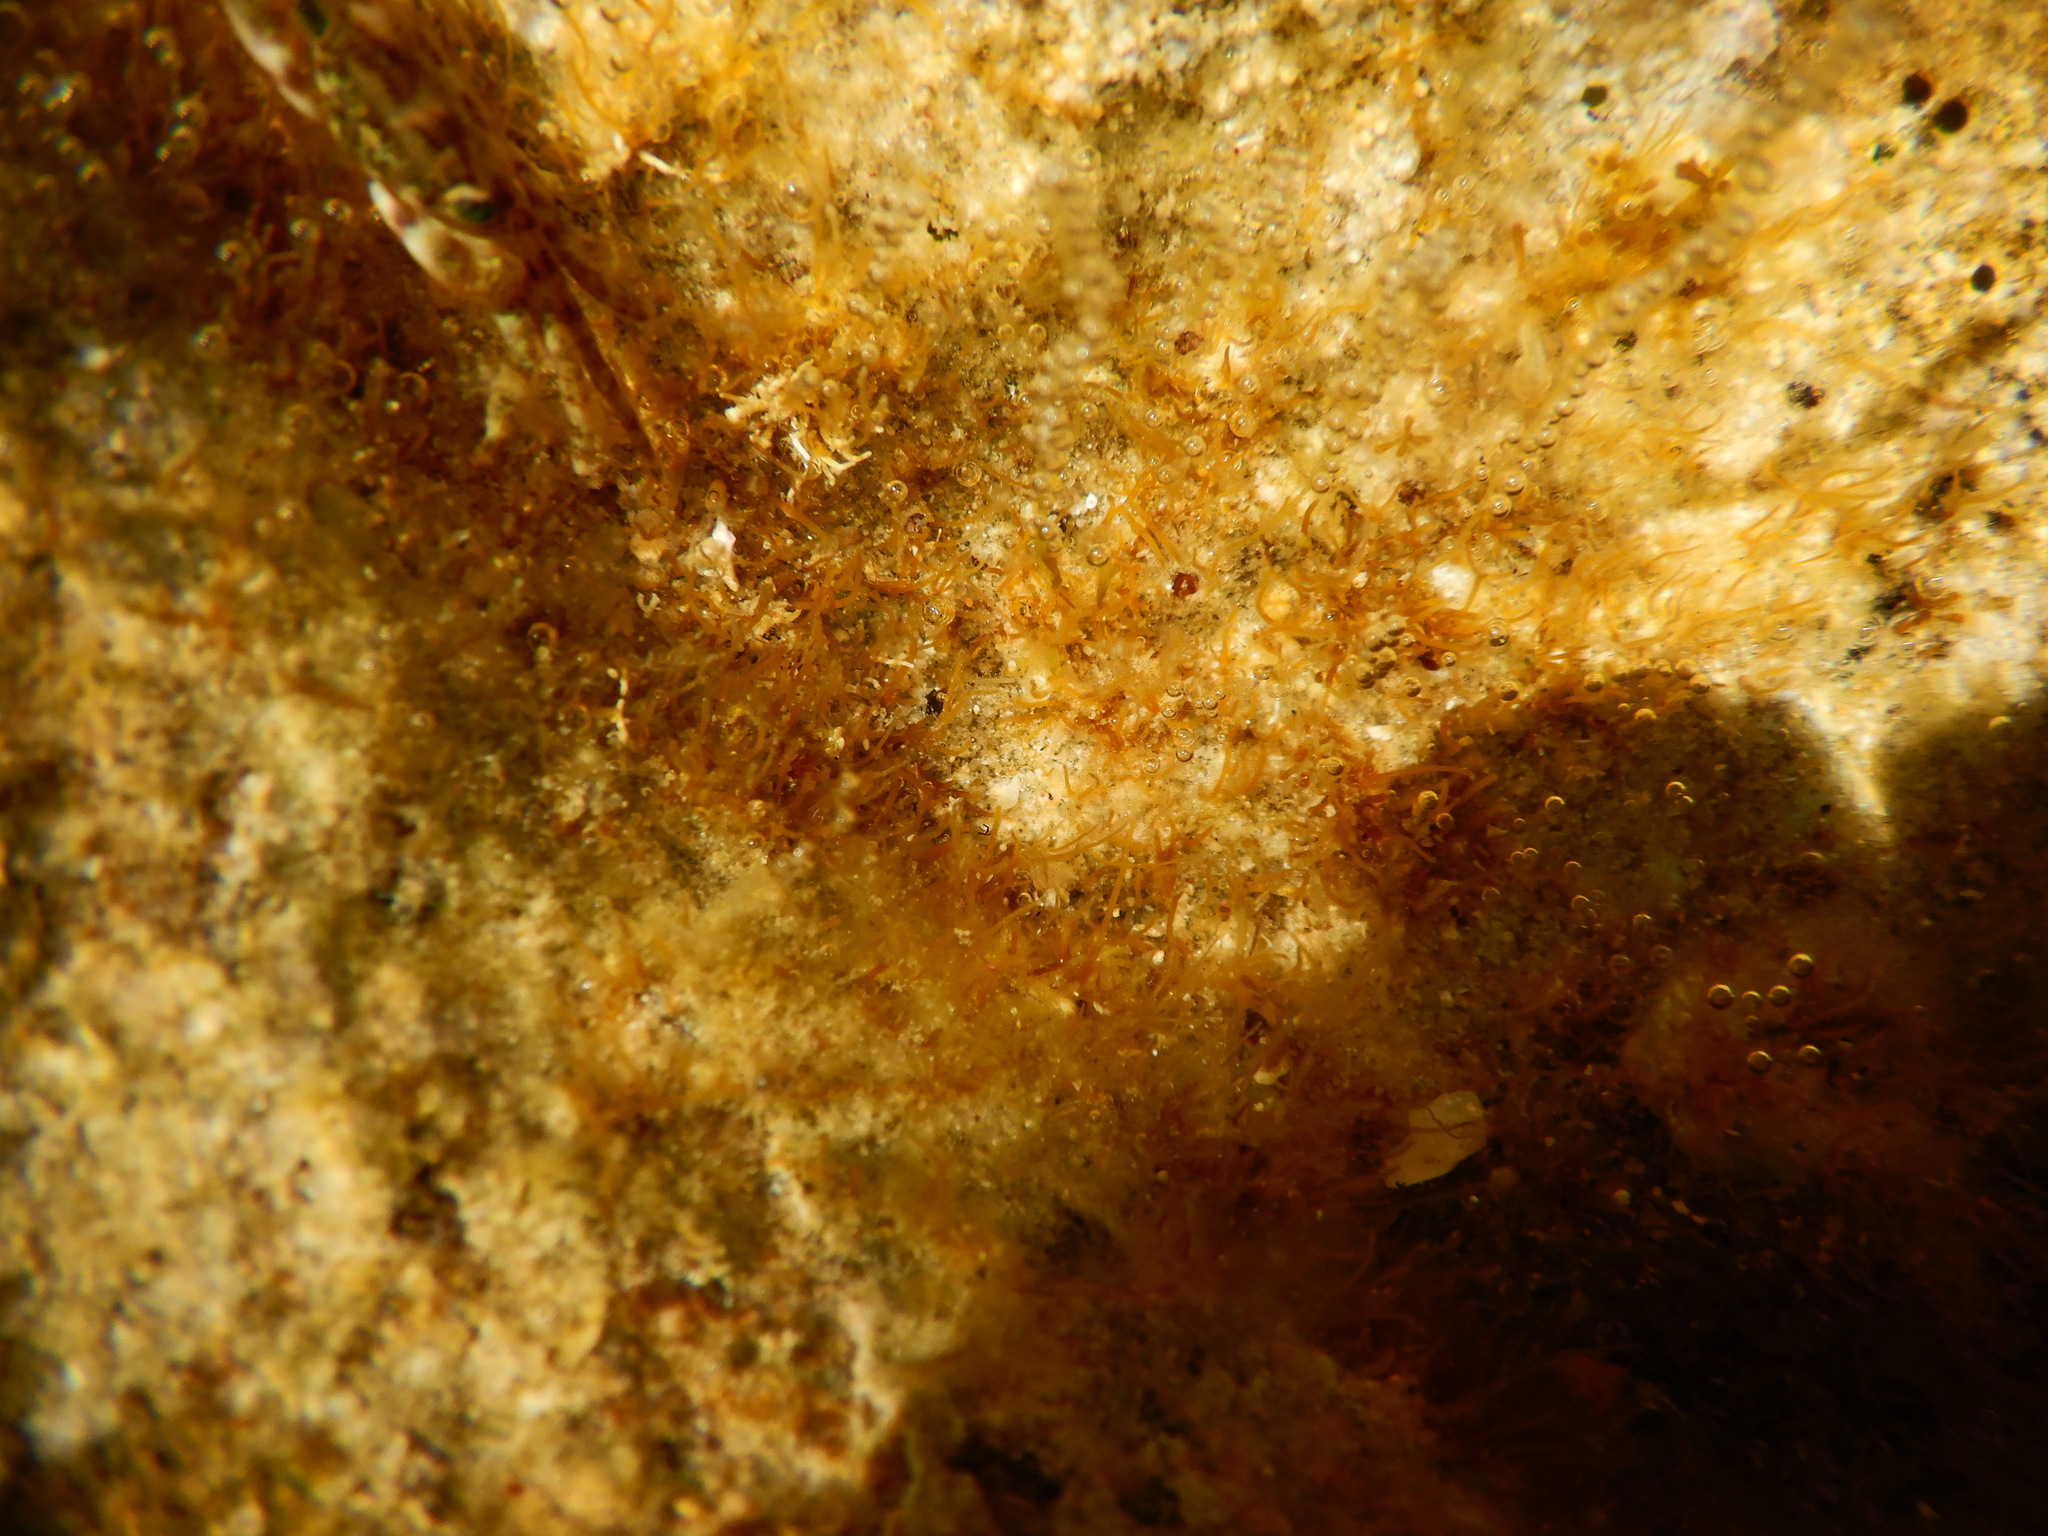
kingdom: Animalia
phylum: Arthropoda
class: Malacostraca
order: Decapoda
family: Grapsidae
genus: Pachygrapsus
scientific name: Pachygrapsus marmoratus
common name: Marbled rock crab
